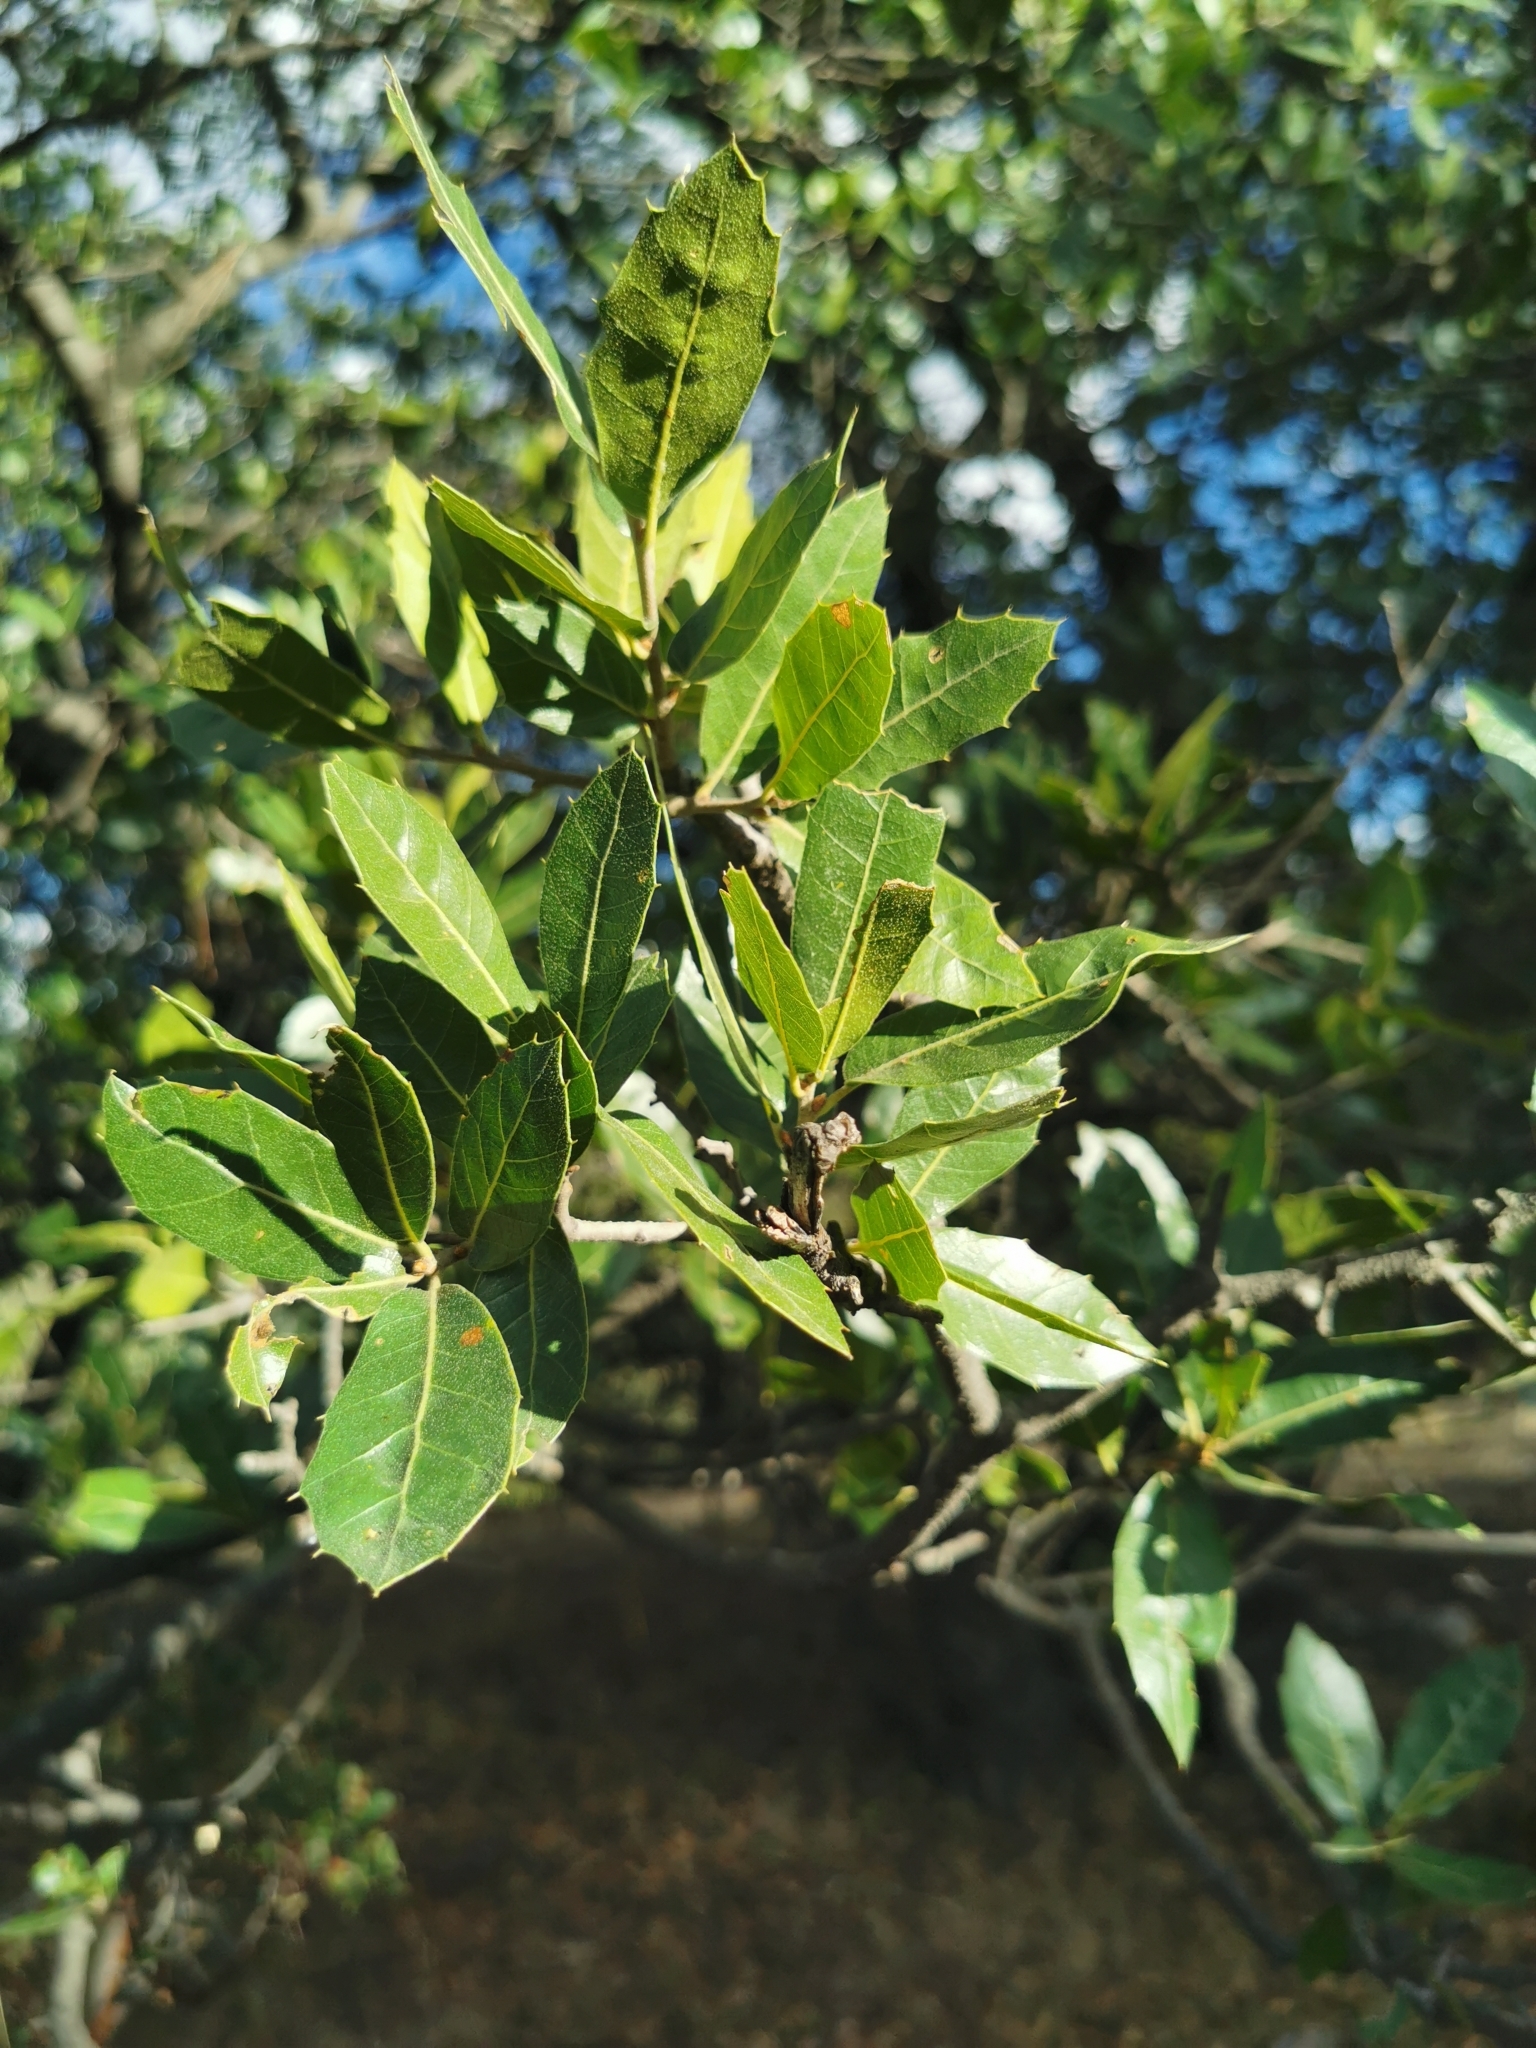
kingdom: Plantae
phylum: Tracheophyta
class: Magnoliopsida
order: Fagales
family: Fagaceae
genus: Quercus
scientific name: Quercus eduardi
